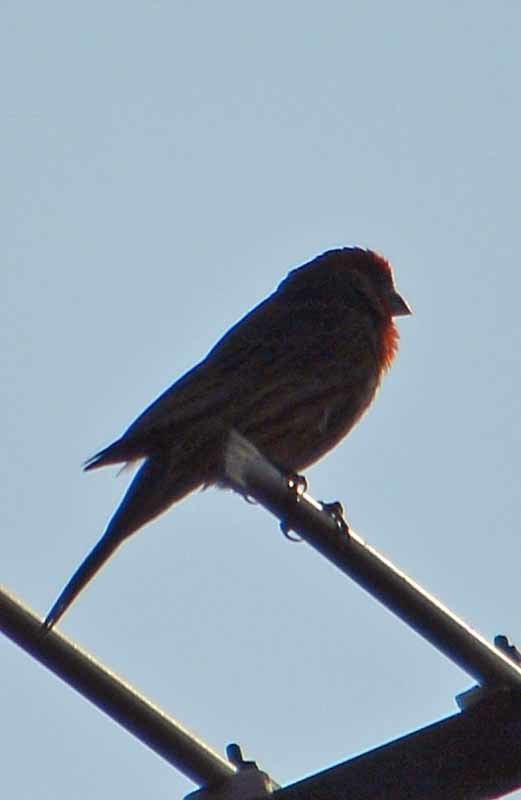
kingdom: Animalia
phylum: Chordata
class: Aves
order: Passeriformes
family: Fringillidae
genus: Haemorhous
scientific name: Haemorhous mexicanus
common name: House finch
